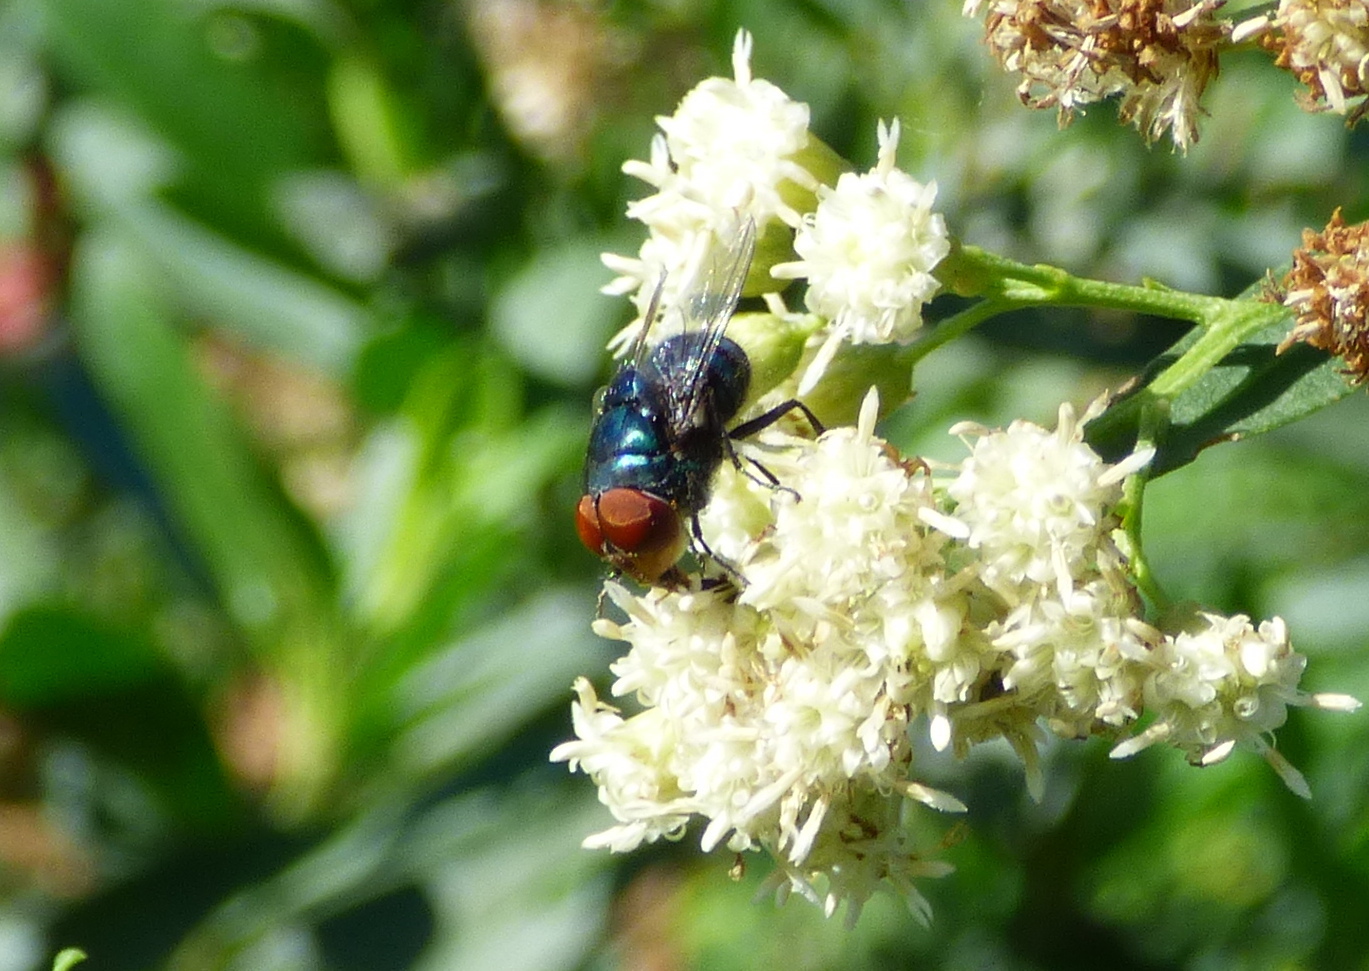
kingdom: Animalia
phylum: Arthropoda
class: Insecta
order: Diptera
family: Calliphoridae
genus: Chrysomya
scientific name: Chrysomya megacephala
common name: Blow fly
